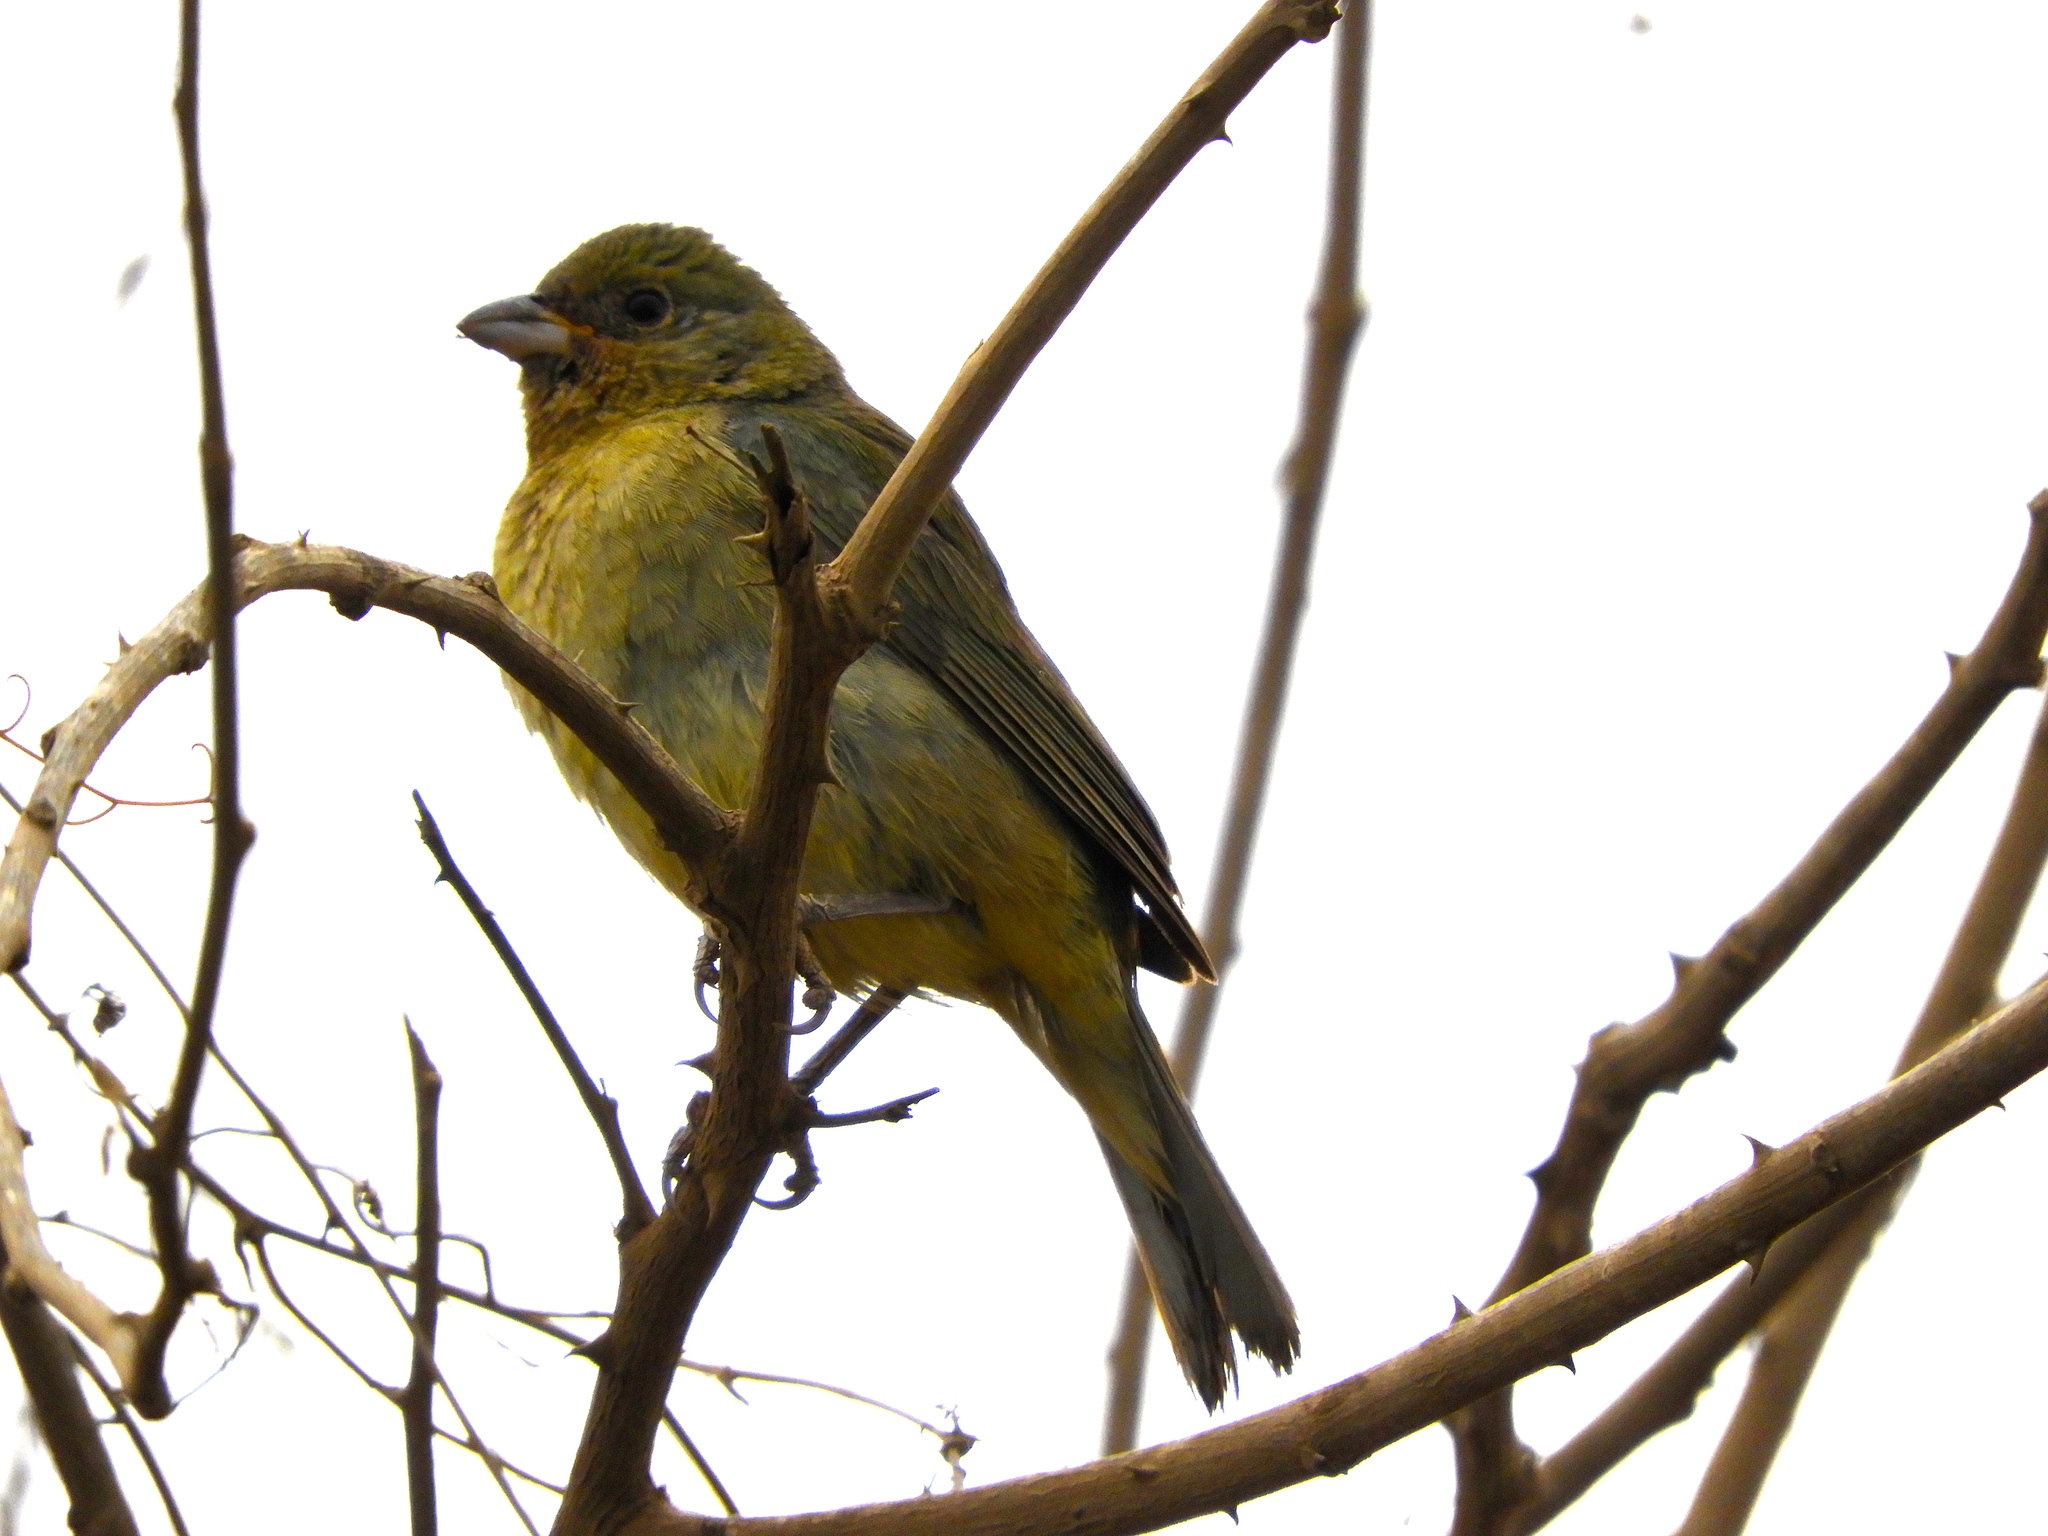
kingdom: Animalia
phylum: Chordata
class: Aves
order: Passeriformes
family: Cardinalidae
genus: Passerina
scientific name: Passerina ciris
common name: Painted bunting
